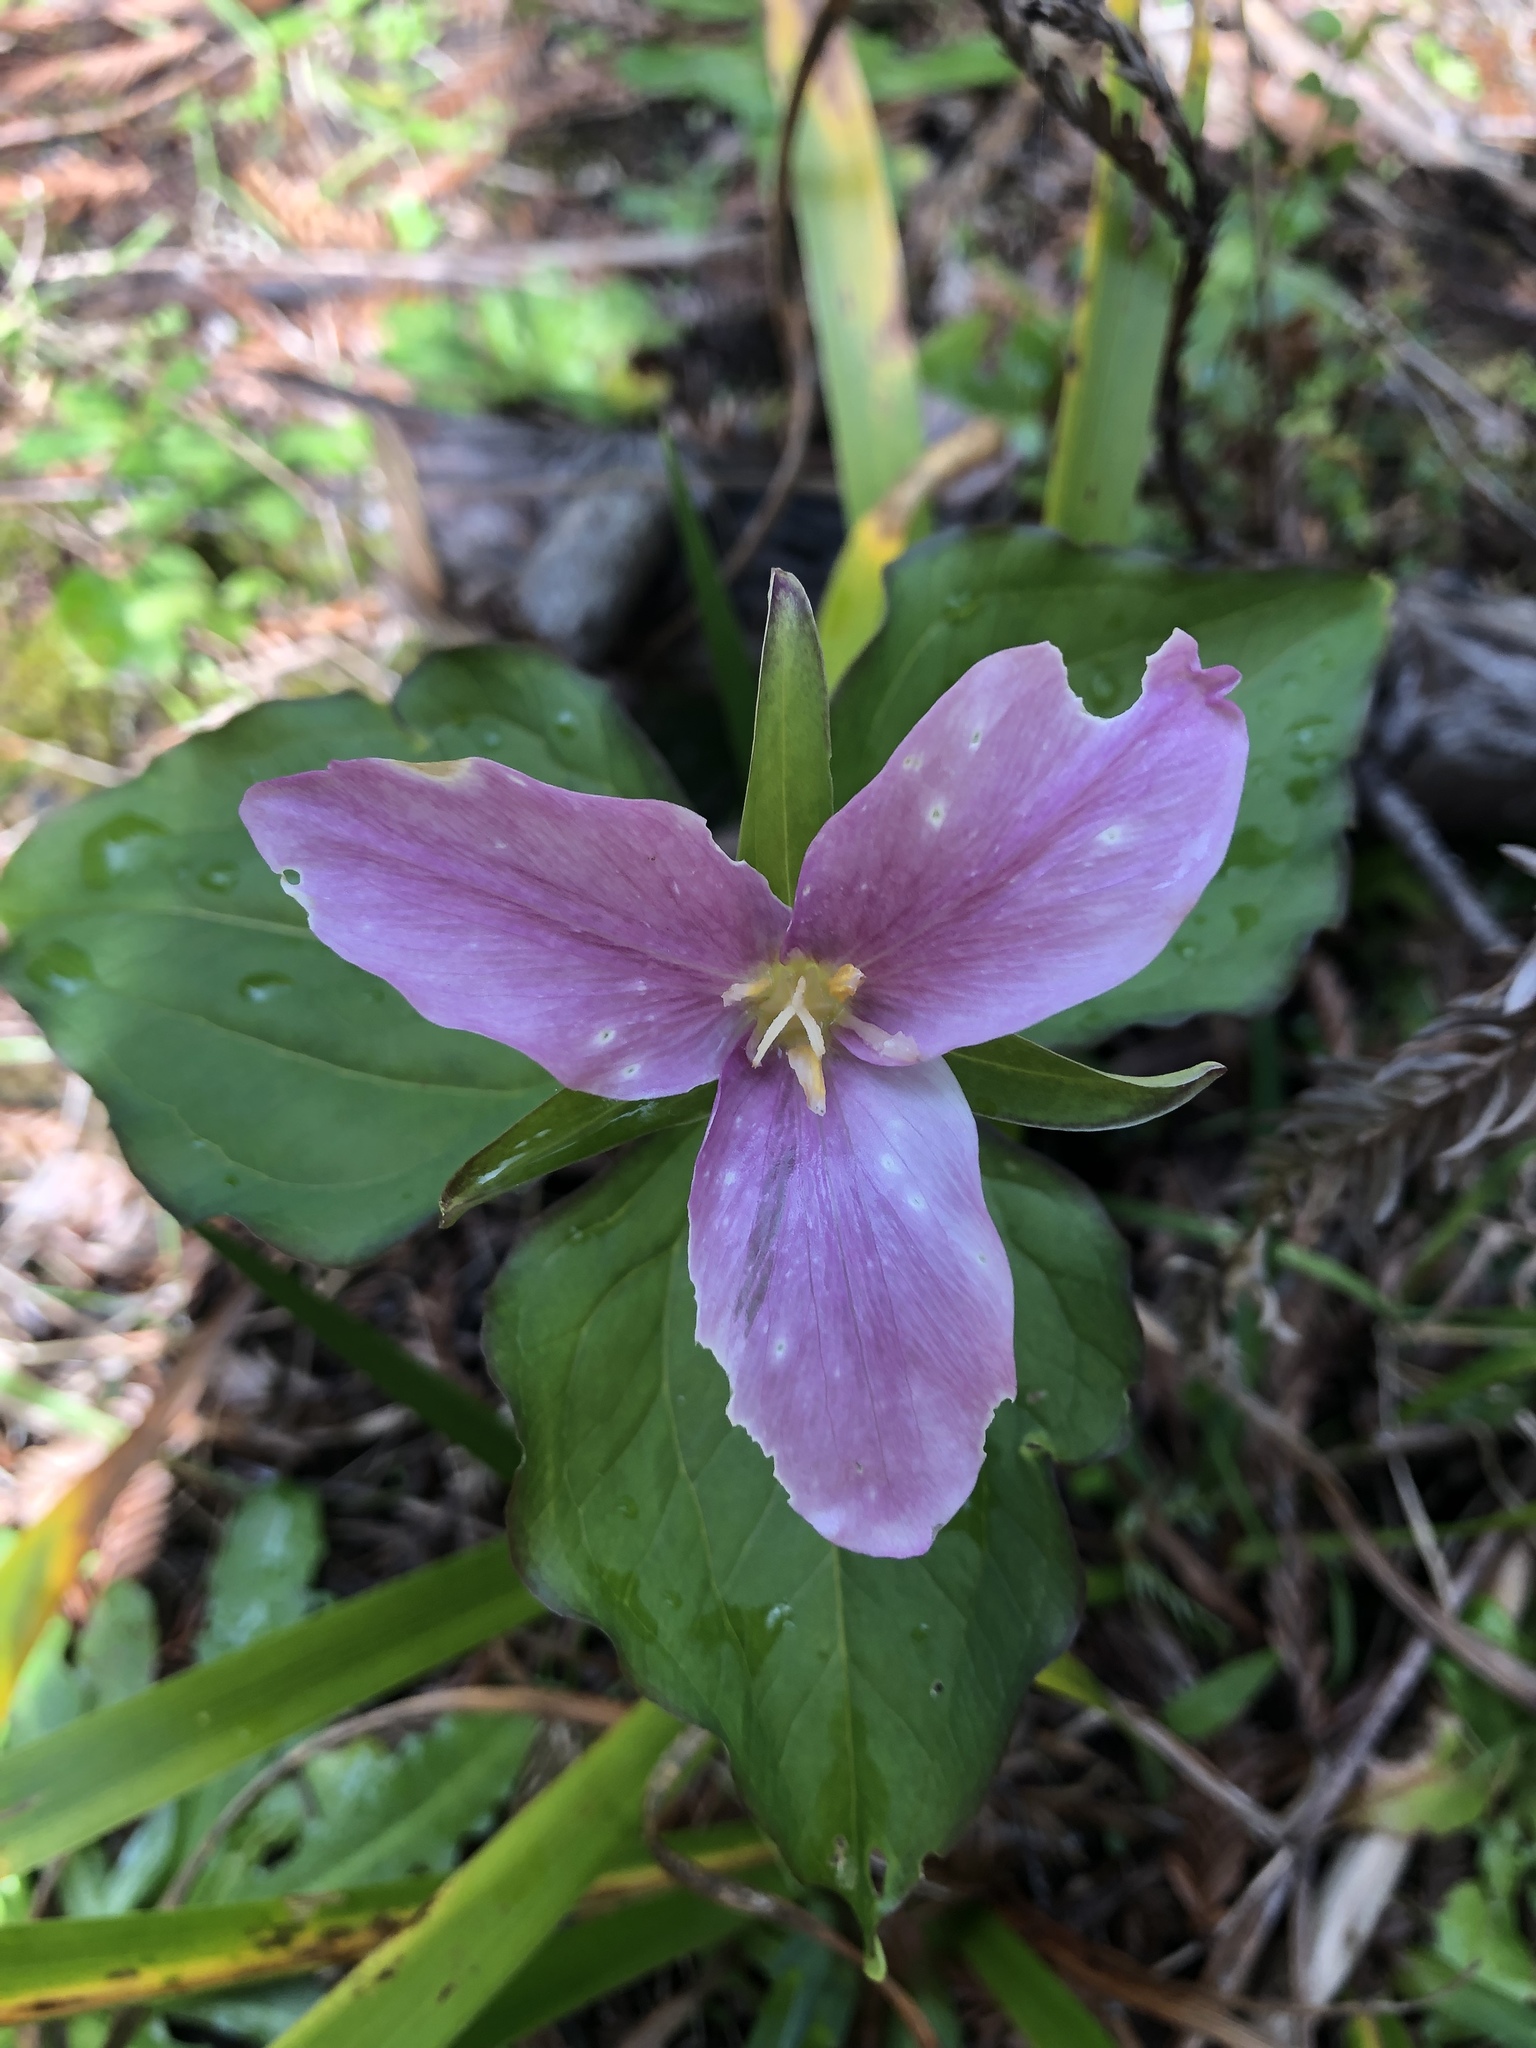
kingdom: Plantae
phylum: Tracheophyta
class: Liliopsida
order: Liliales
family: Melanthiaceae
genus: Trillium
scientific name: Trillium ovatum
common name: Pacific trillium
